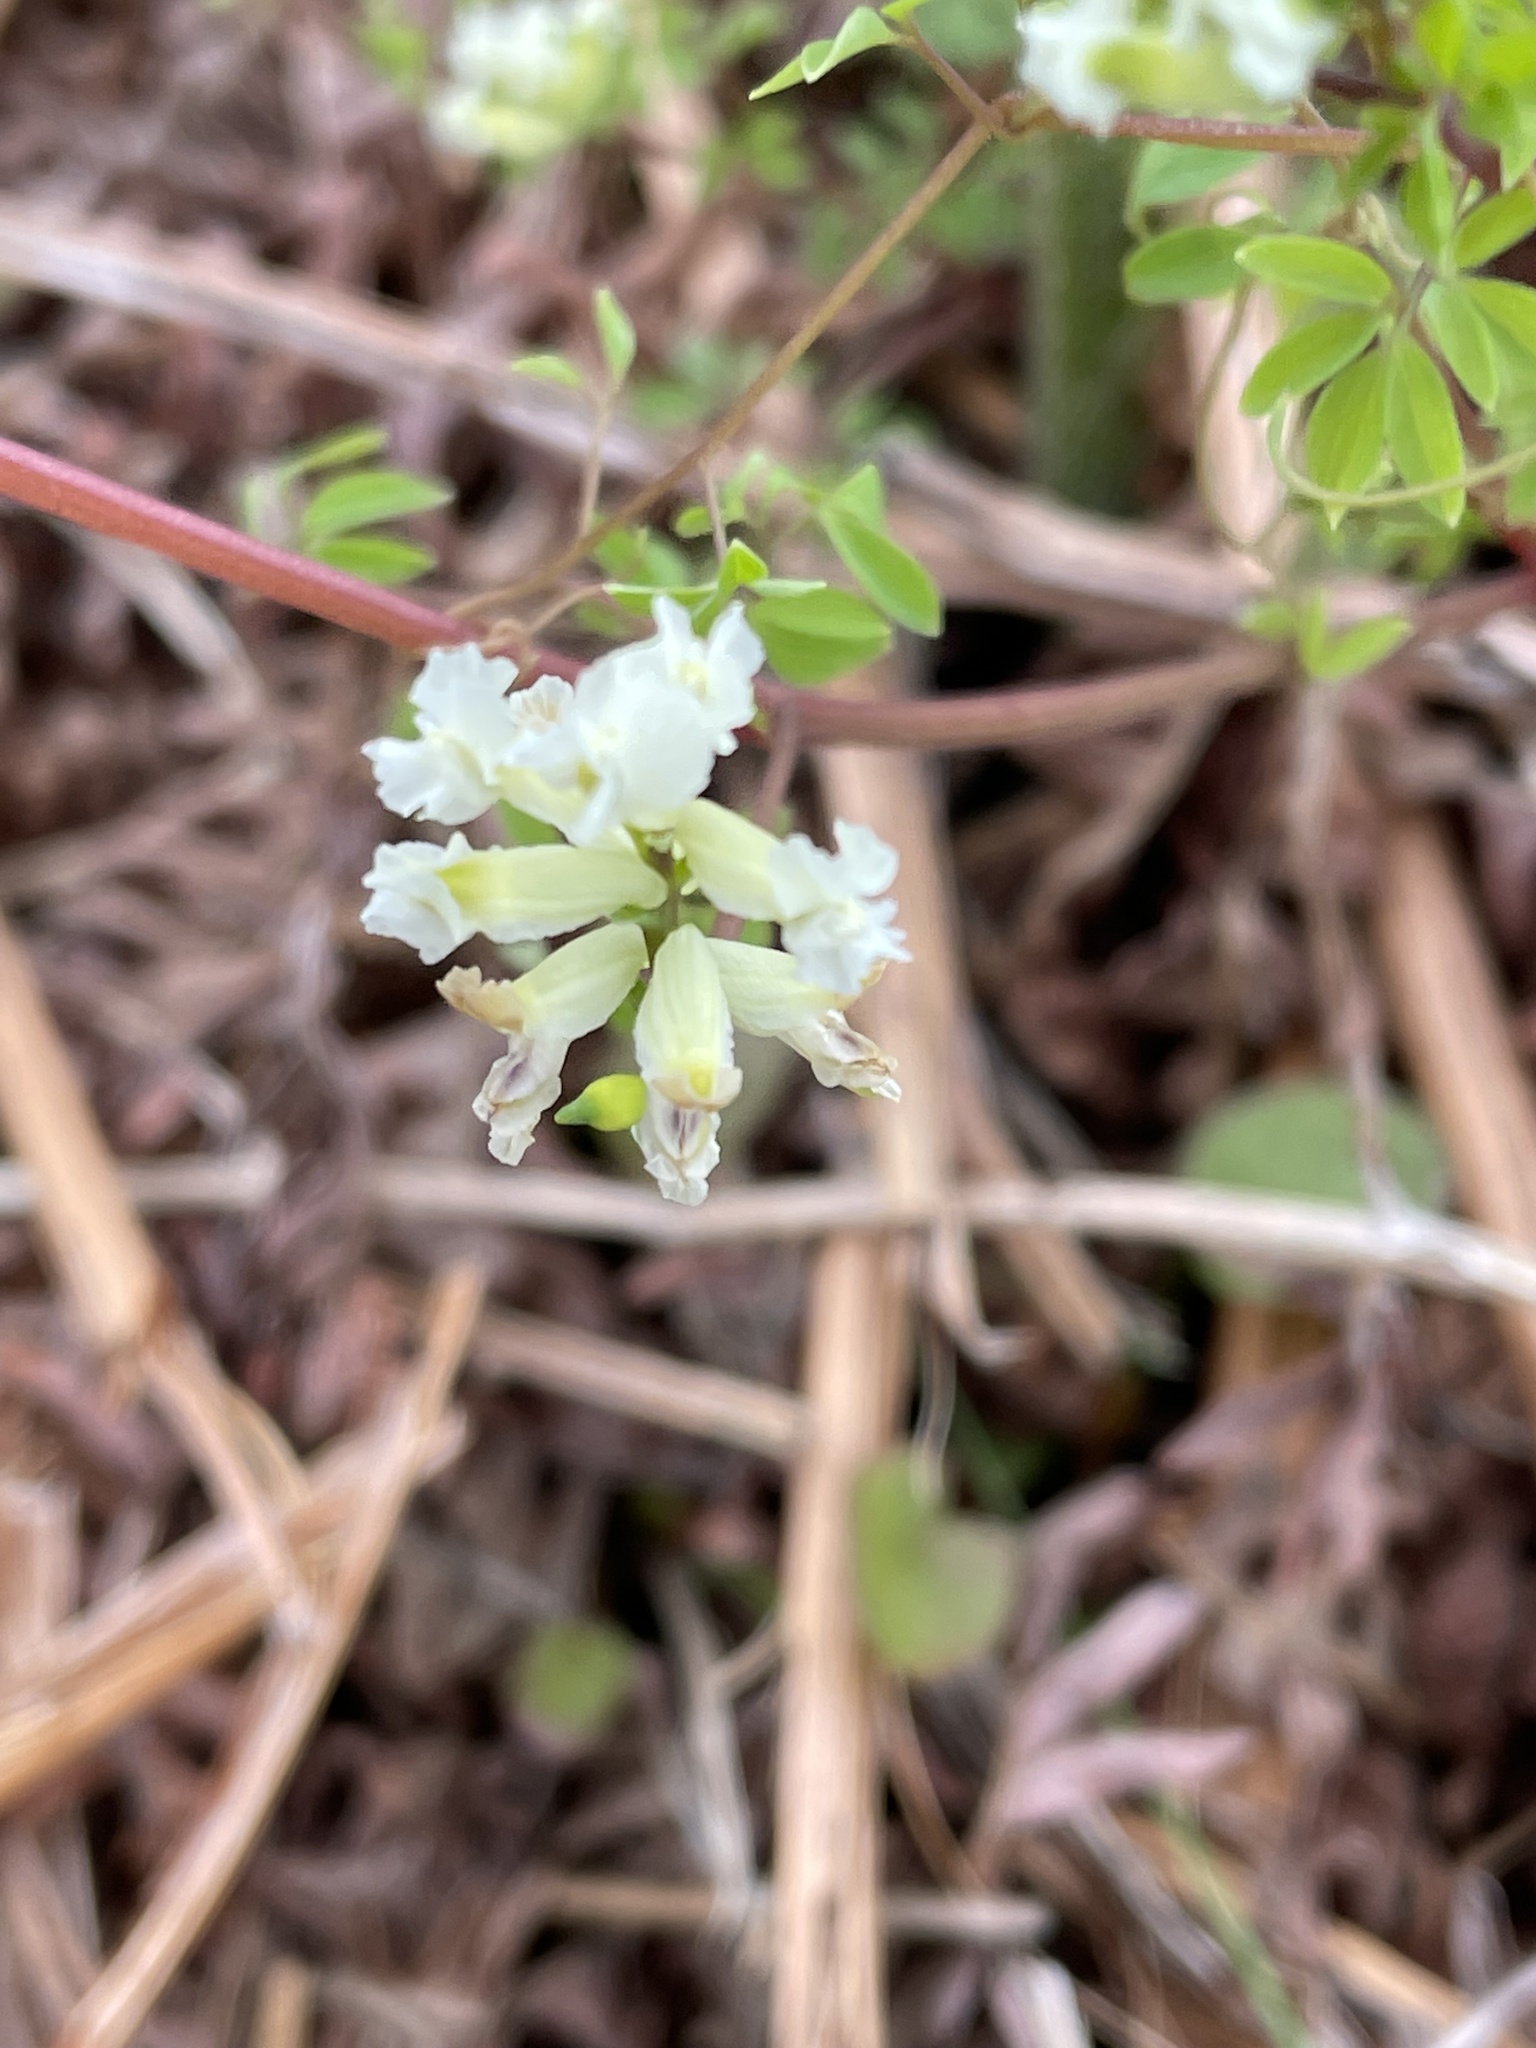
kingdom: Plantae
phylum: Tracheophyta
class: Magnoliopsida
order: Ranunculales
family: Papaveraceae
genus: Ceratocapnos
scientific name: Ceratocapnos claviculata
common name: Climbing corydalis
